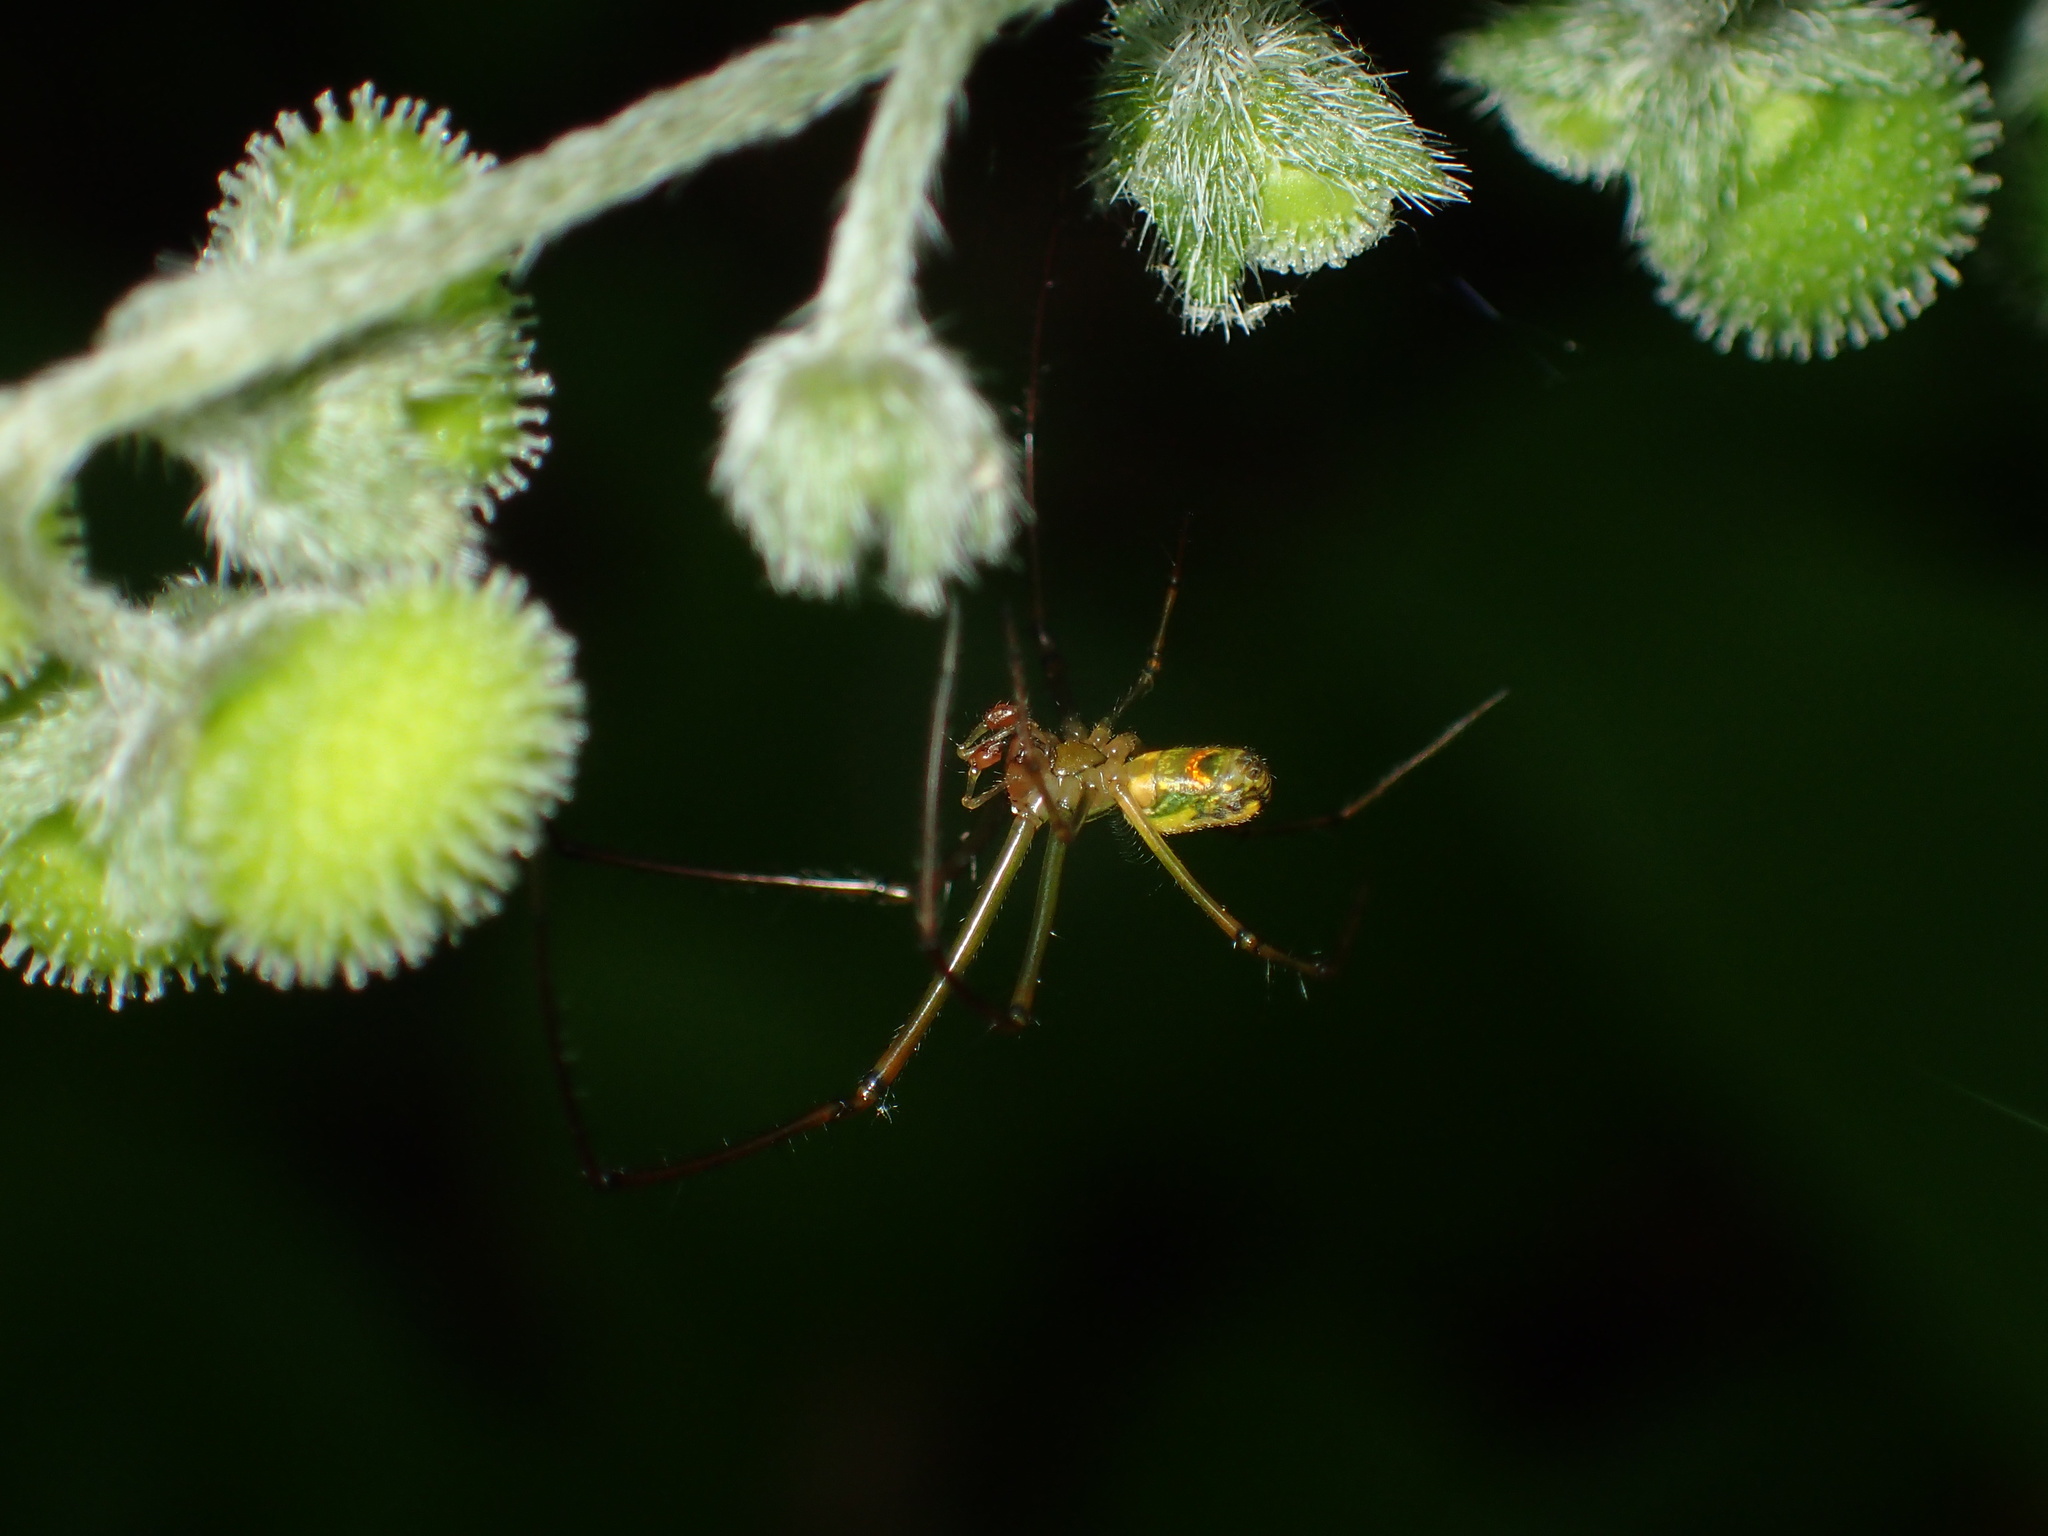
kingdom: Animalia
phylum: Arthropoda
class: Arachnida
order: Araneae
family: Tetragnathidae
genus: Leucauge
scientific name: Leucauge venusta
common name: Longjawed orb weavers
